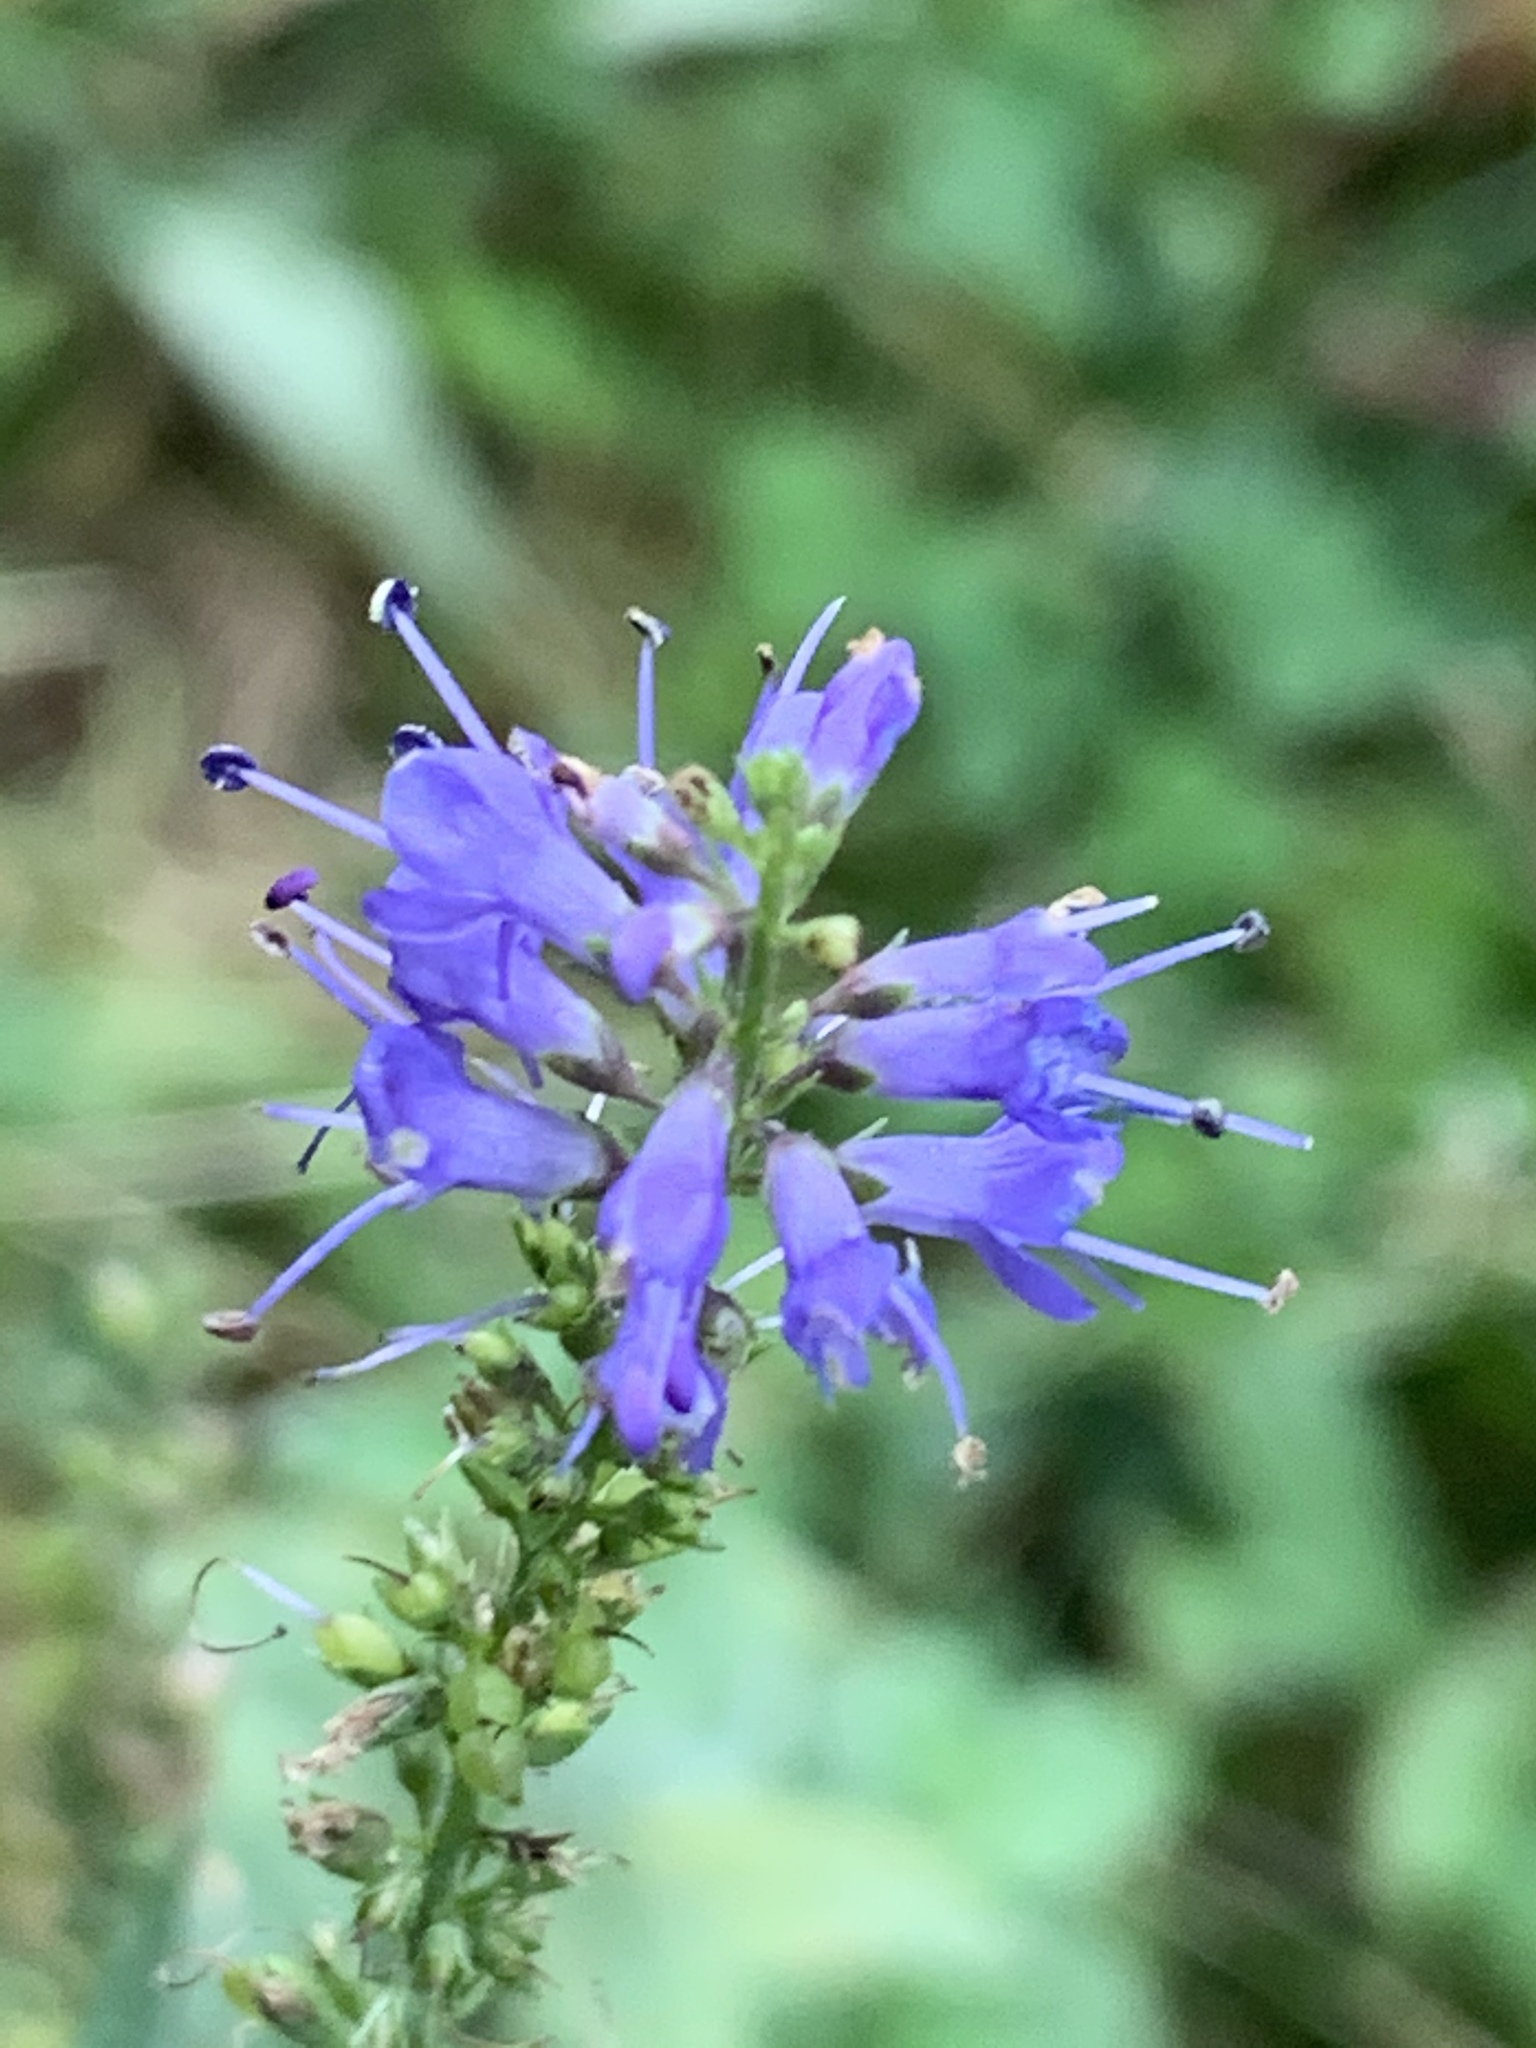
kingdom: Plantae
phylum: Tracheophyta
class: Magnoliopsida
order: Lamiales
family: Plantaginaceae
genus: Veronica
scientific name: Veronica longifolia
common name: Garden speedwell
